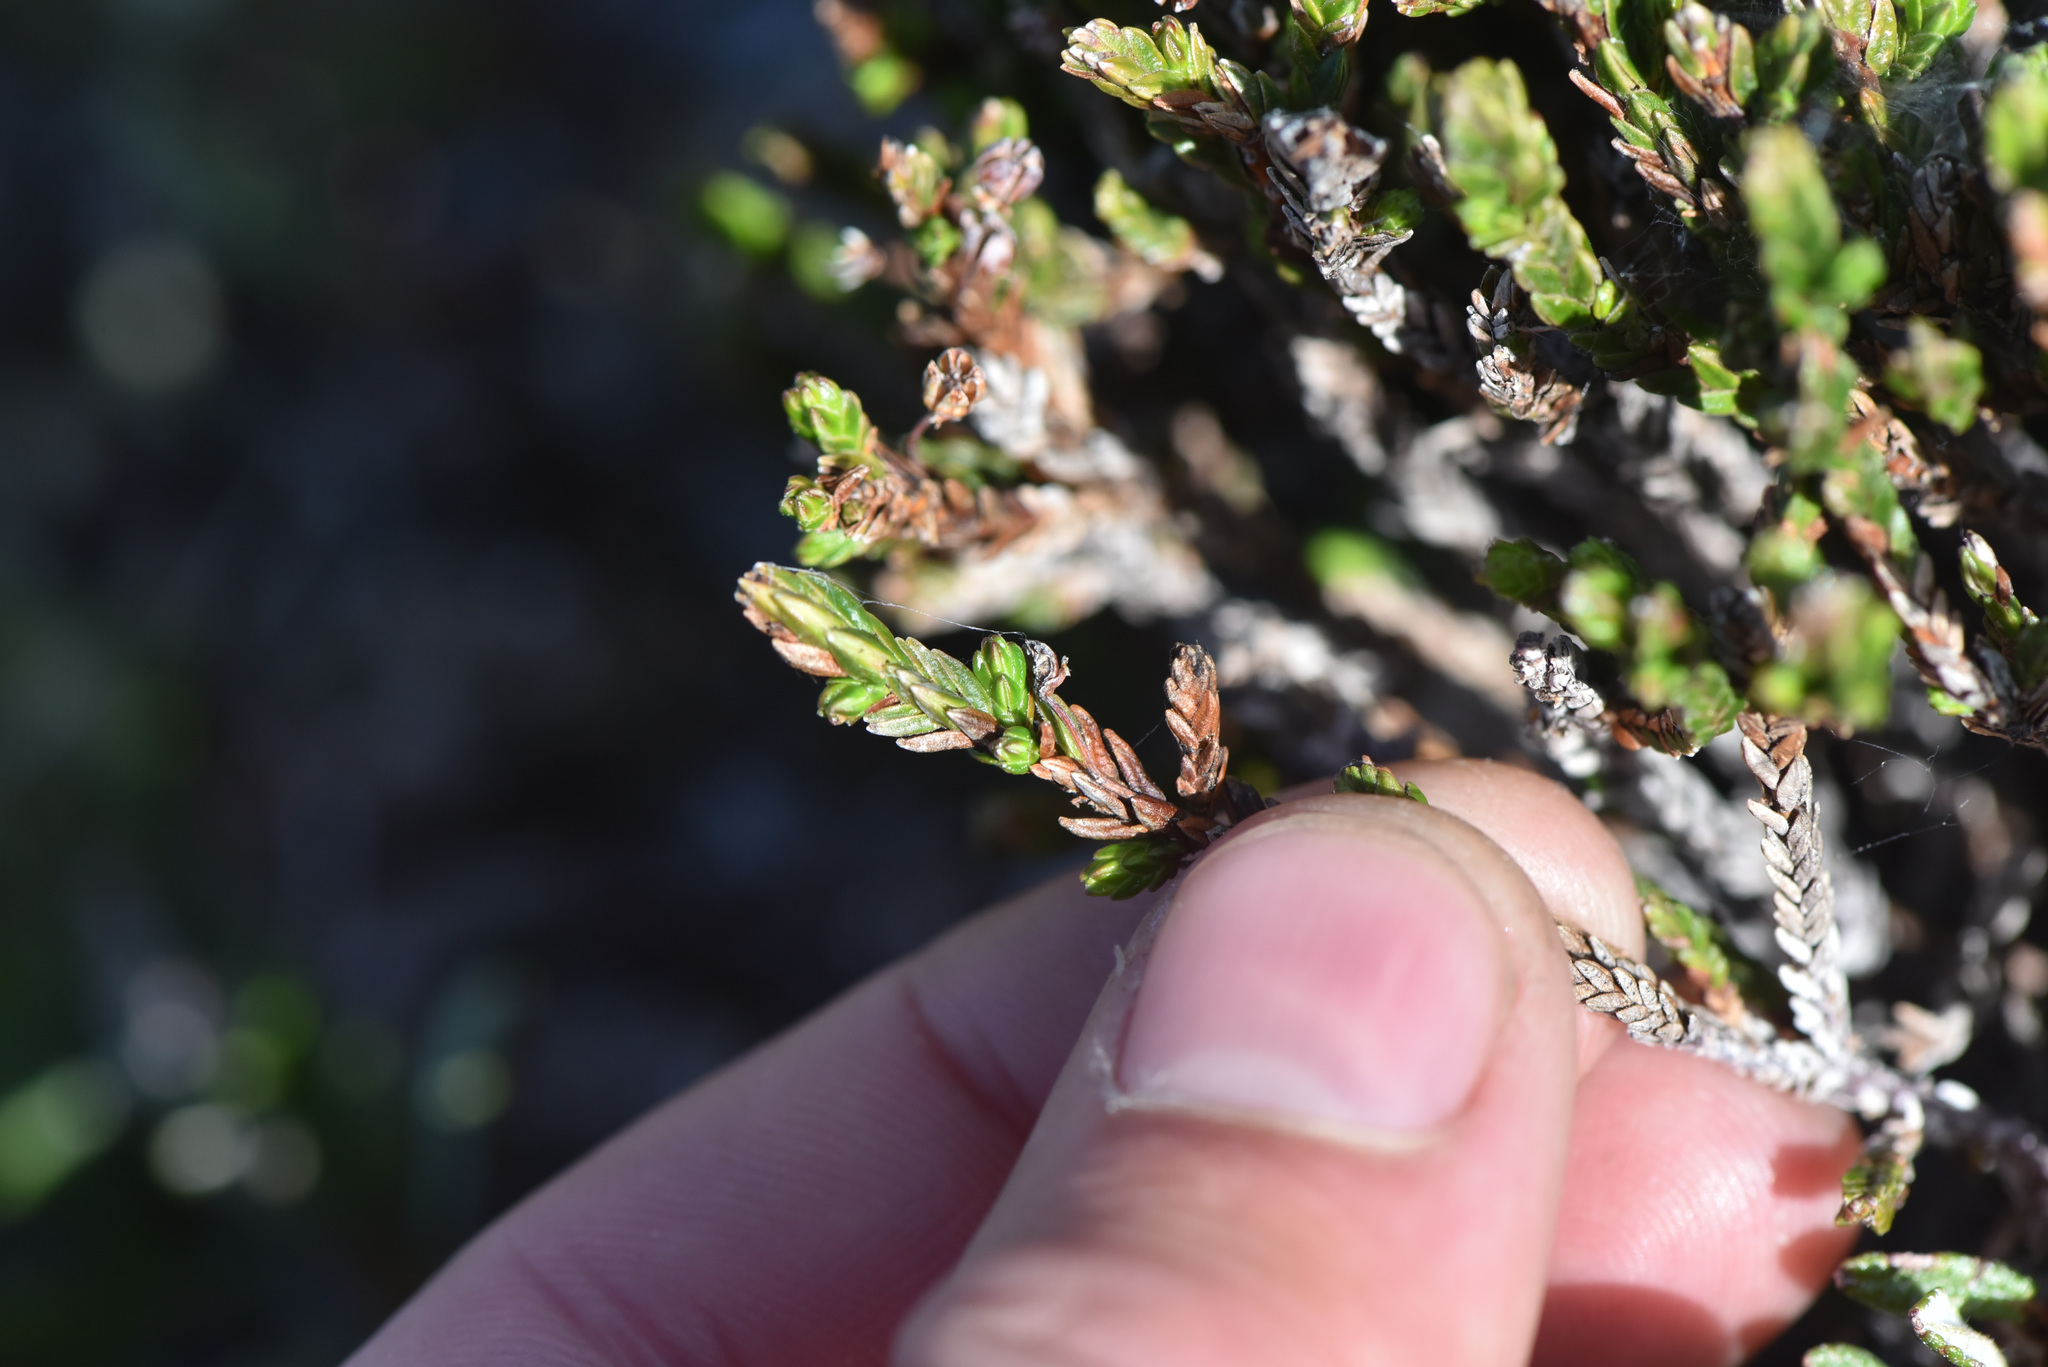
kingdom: Plantae
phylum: Tracheophyta
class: Magnoliopsida
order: Ericales
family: Ericaceae
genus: Cassiope
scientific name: Cassiope tetragona
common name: Arctic bell heather
